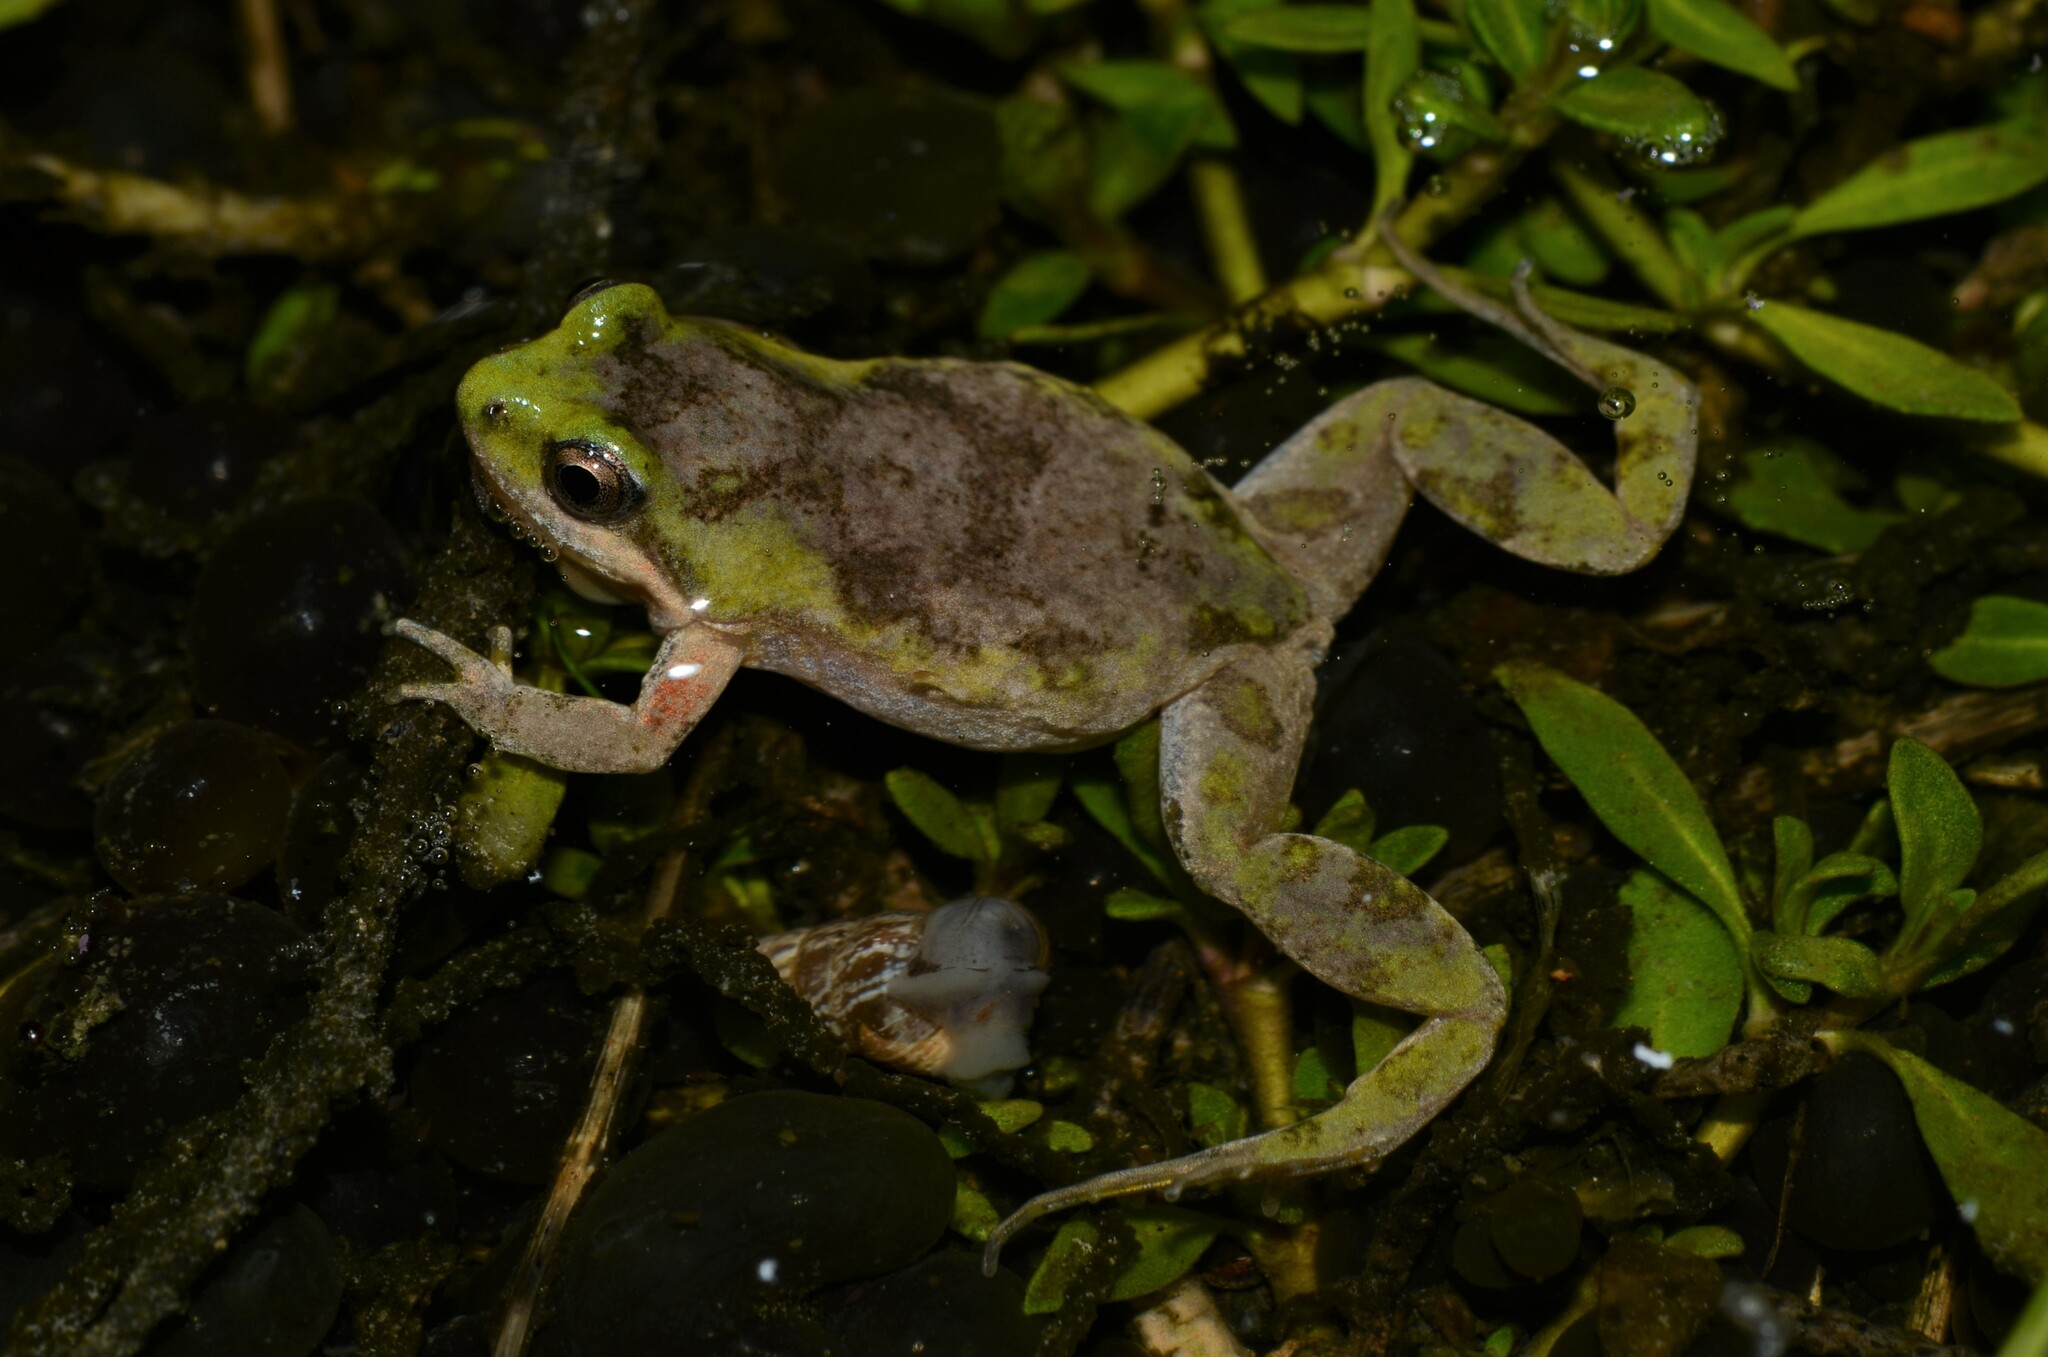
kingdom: Animalia
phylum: Chordata
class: Amphibia
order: Anura
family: Pyxicephalidae
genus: Cacosternum
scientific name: Cacosternum aggestum
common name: Klipheuwel dainty frog
